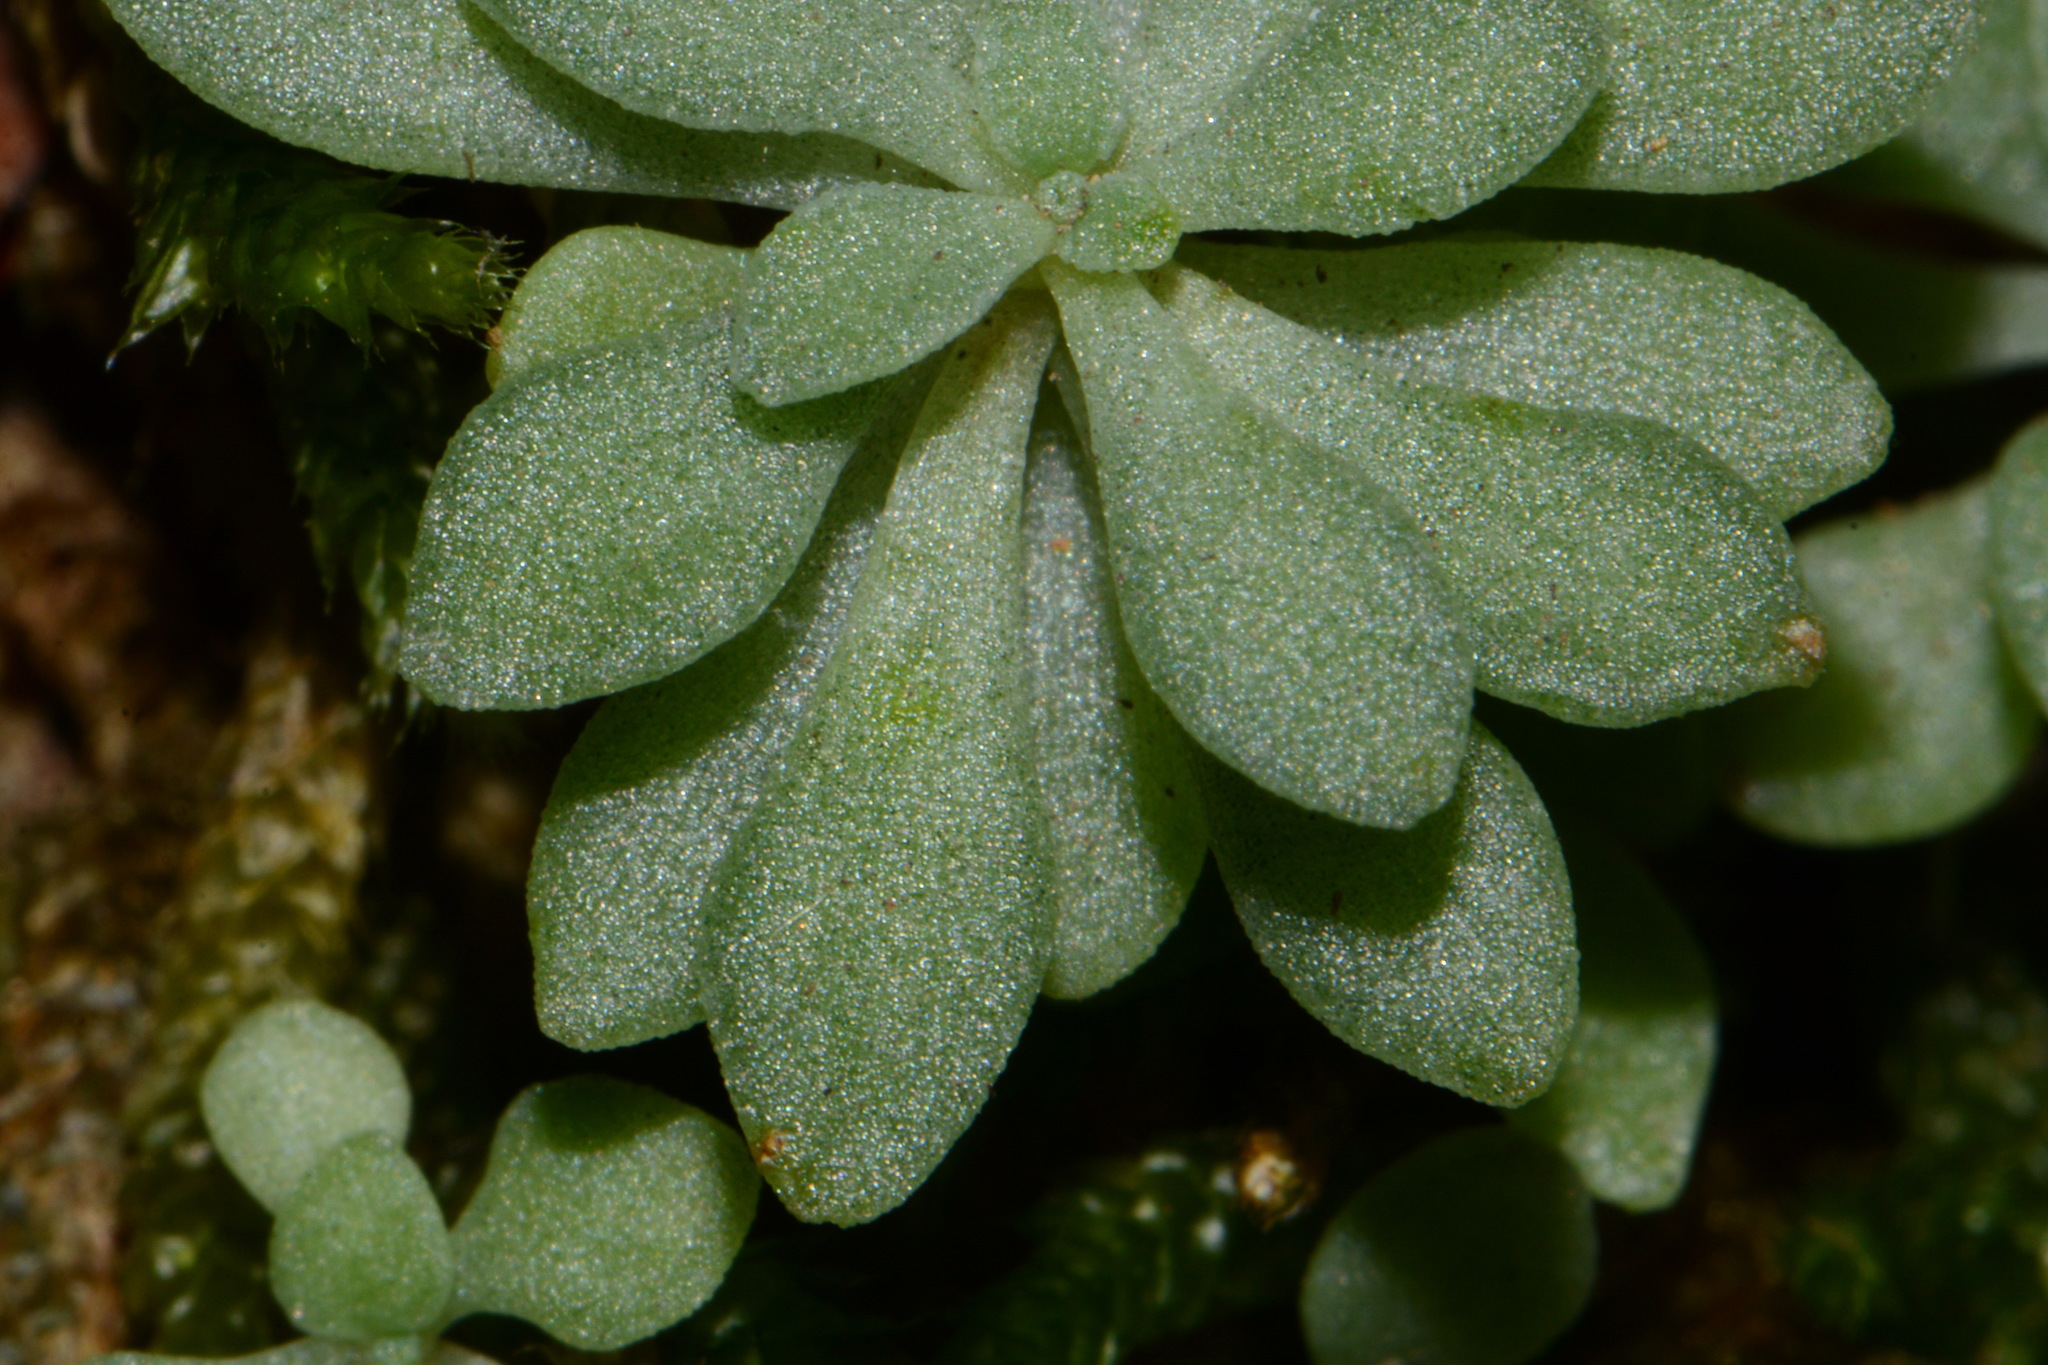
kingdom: Plantae
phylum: Tracheophyta
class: Magnoliopsida
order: Saxifragales
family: Crassulaceae
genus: Sedum
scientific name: Sedum nevii
